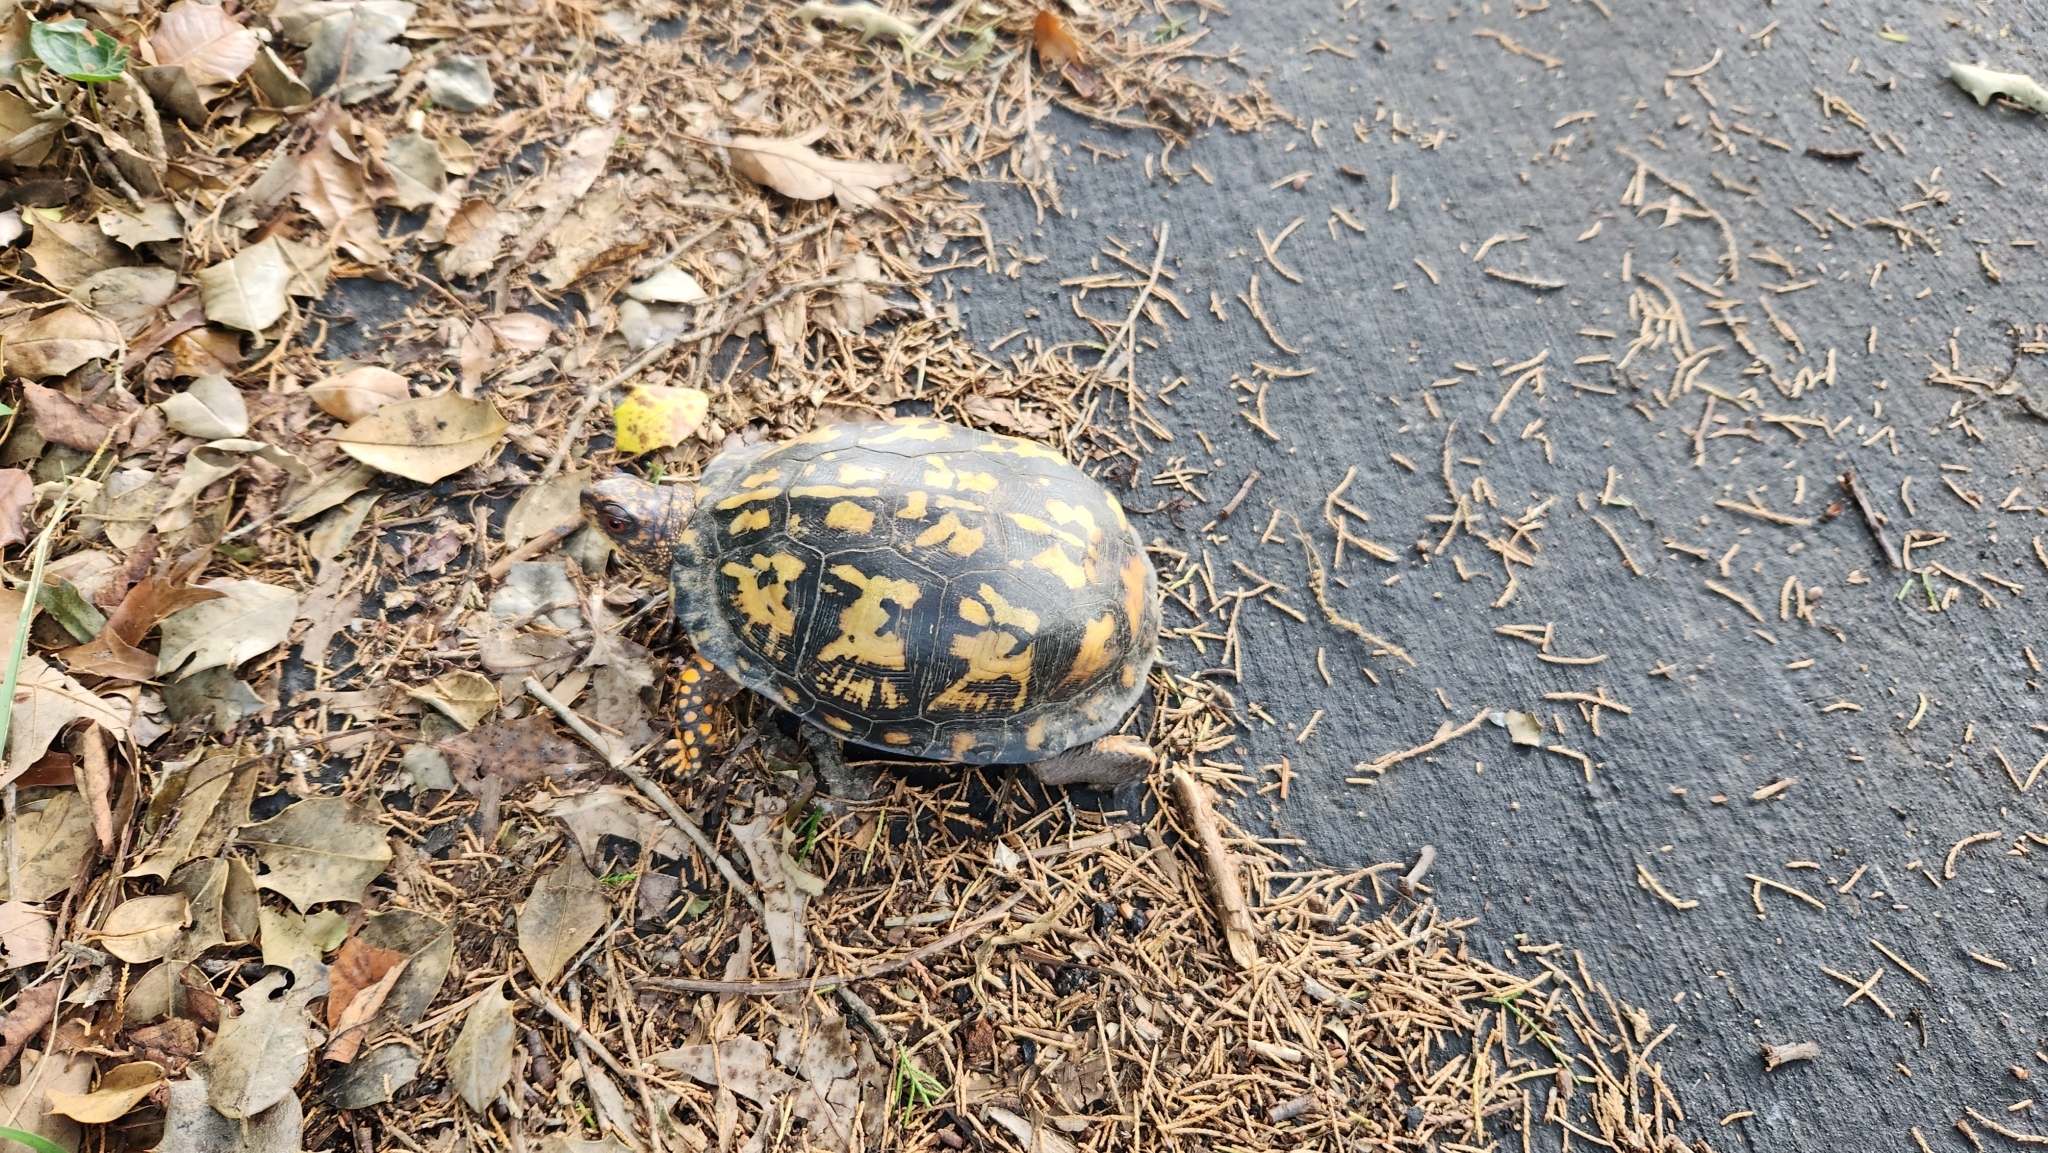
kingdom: Animalia
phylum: Chordata
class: Testudines
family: Emydidae
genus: Terrapene
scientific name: Terrapene carolina
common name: Common box turtle
